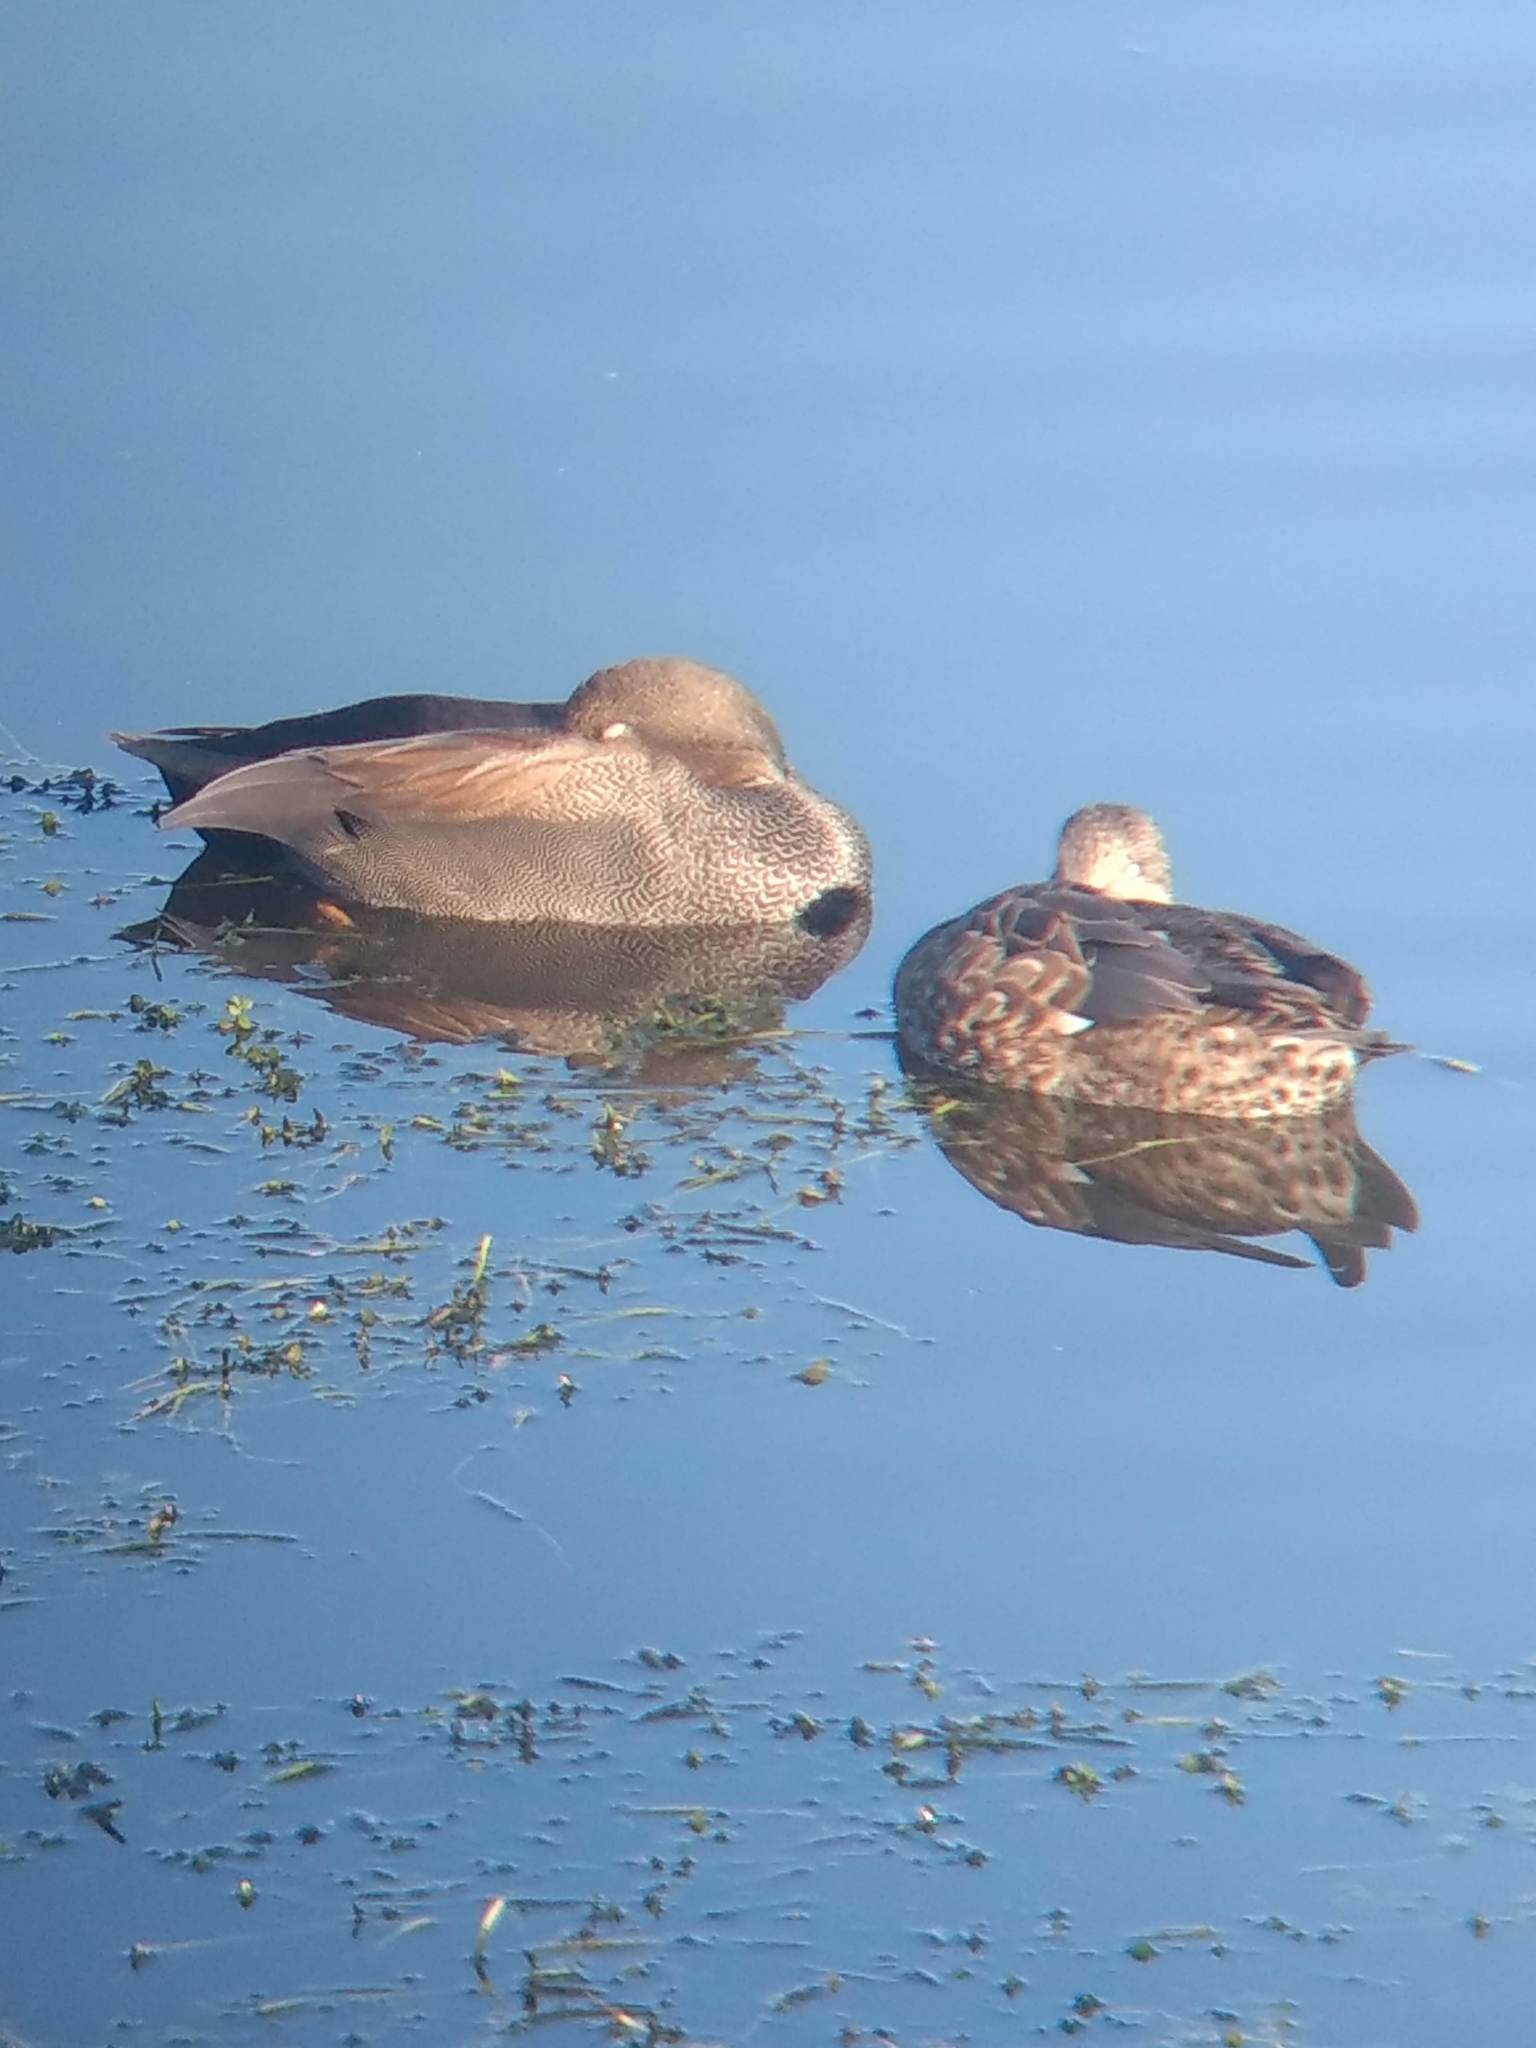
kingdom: Animalia
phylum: Chordata
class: Aves
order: Anseriformes
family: Anatidae
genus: Mareca
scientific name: Mareca strepera
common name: Gadwall
